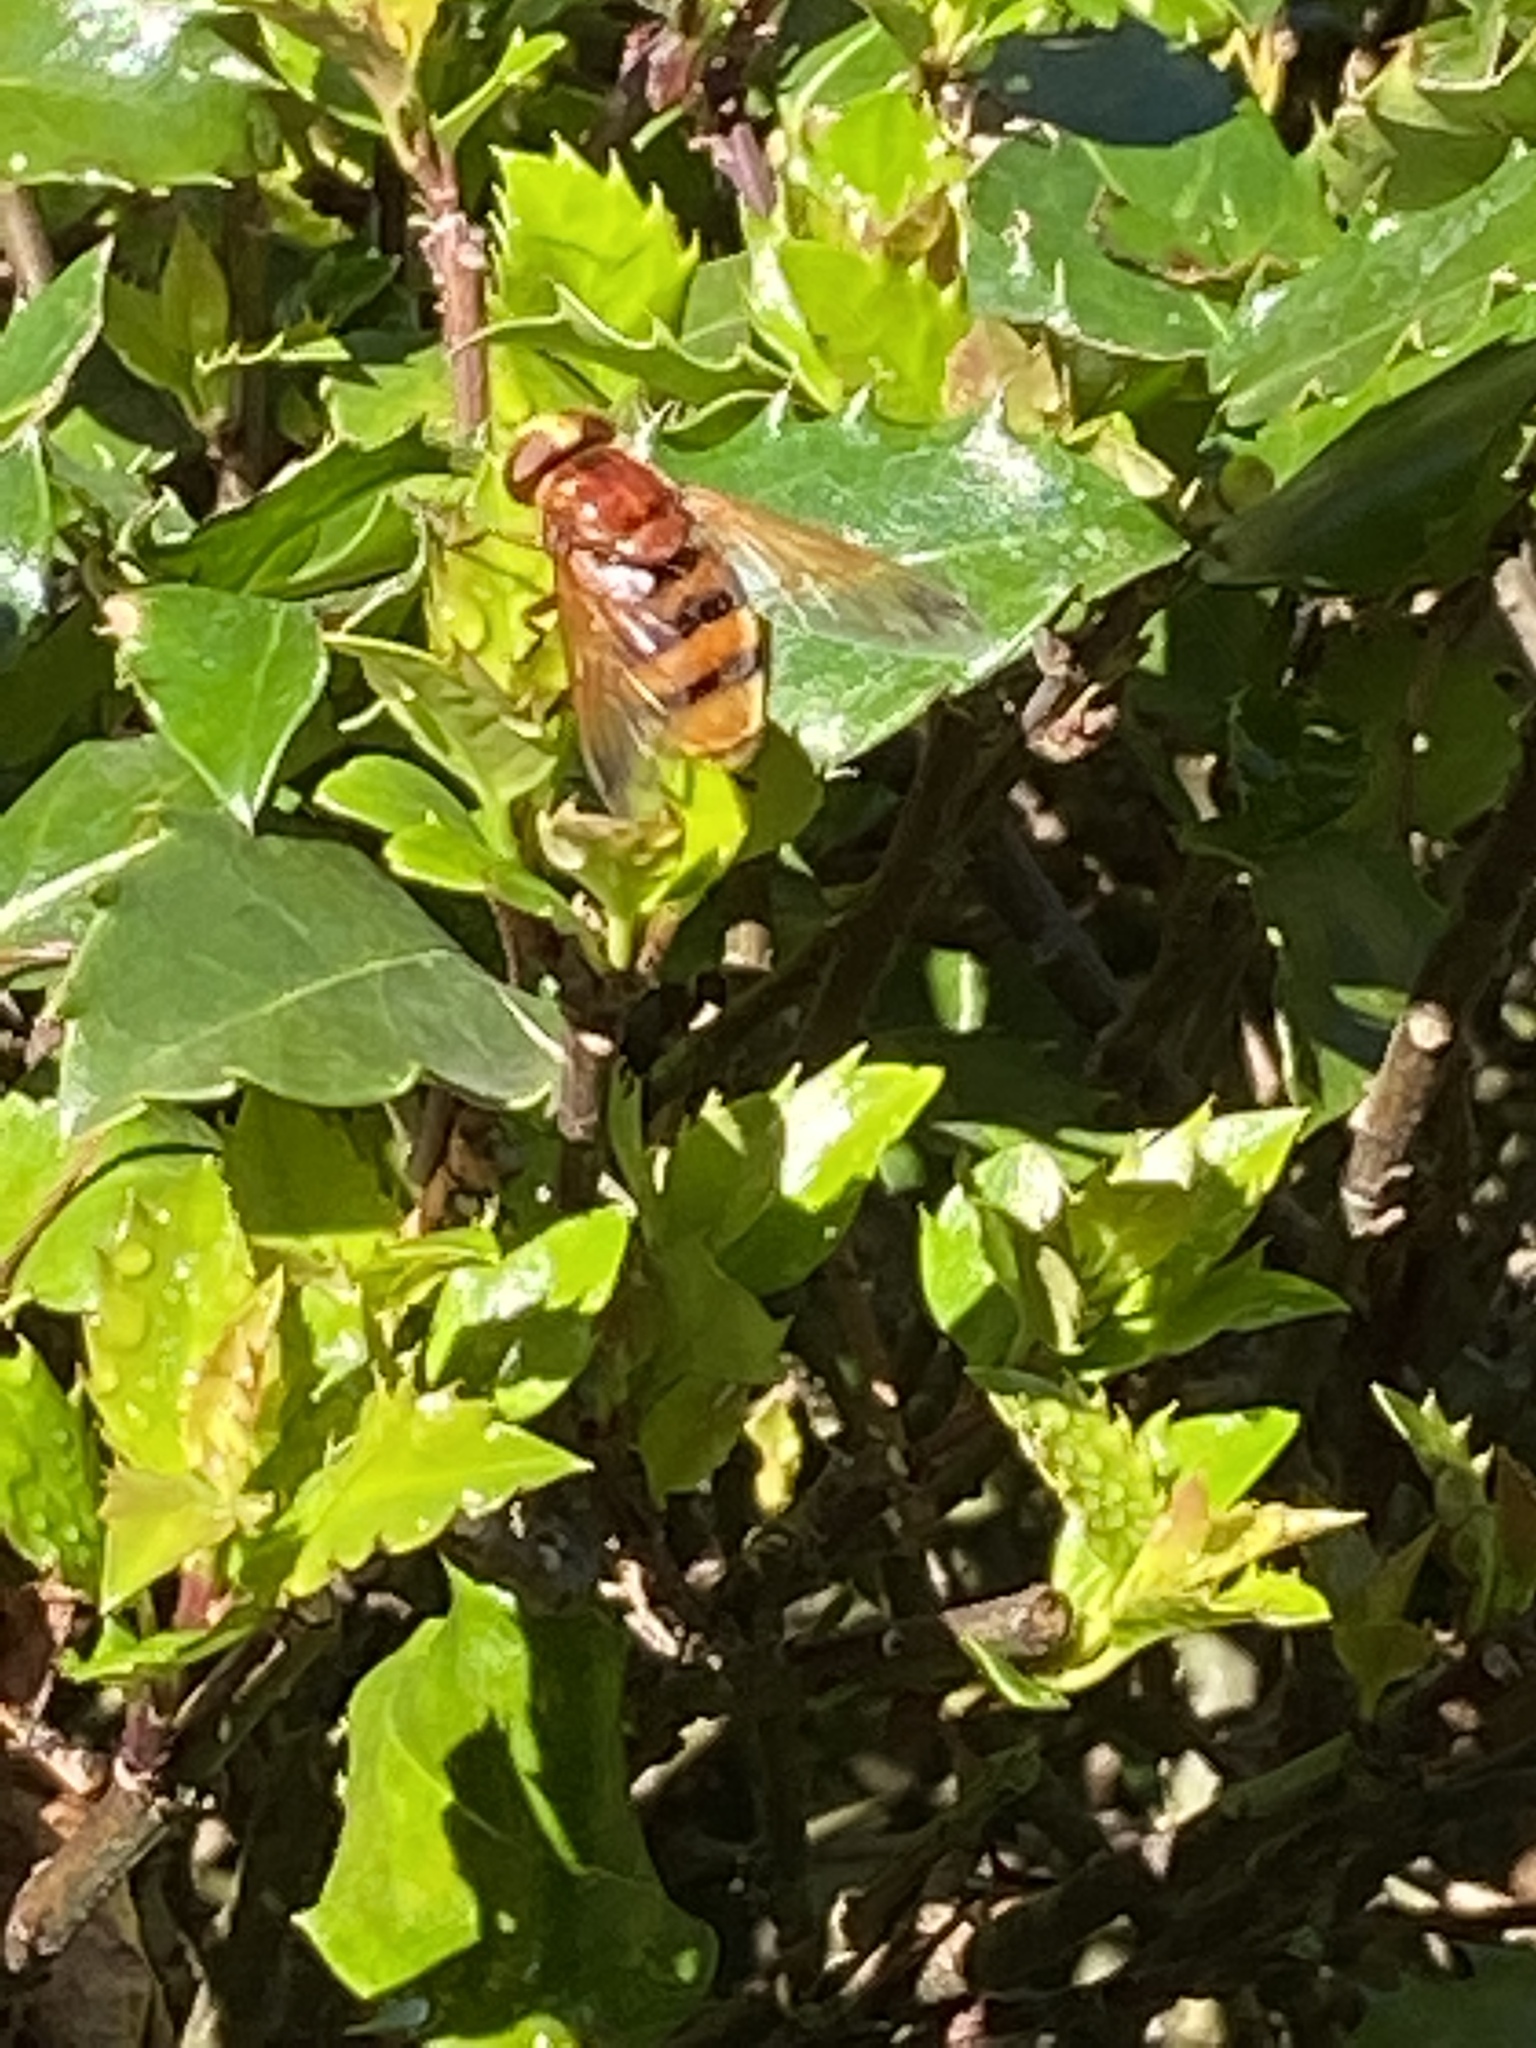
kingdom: Animalia
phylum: Arthropoda
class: Insecta
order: Diptera
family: Syrphidae
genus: Volucella
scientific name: Volucella zonaria
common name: Hornet hoverfly
